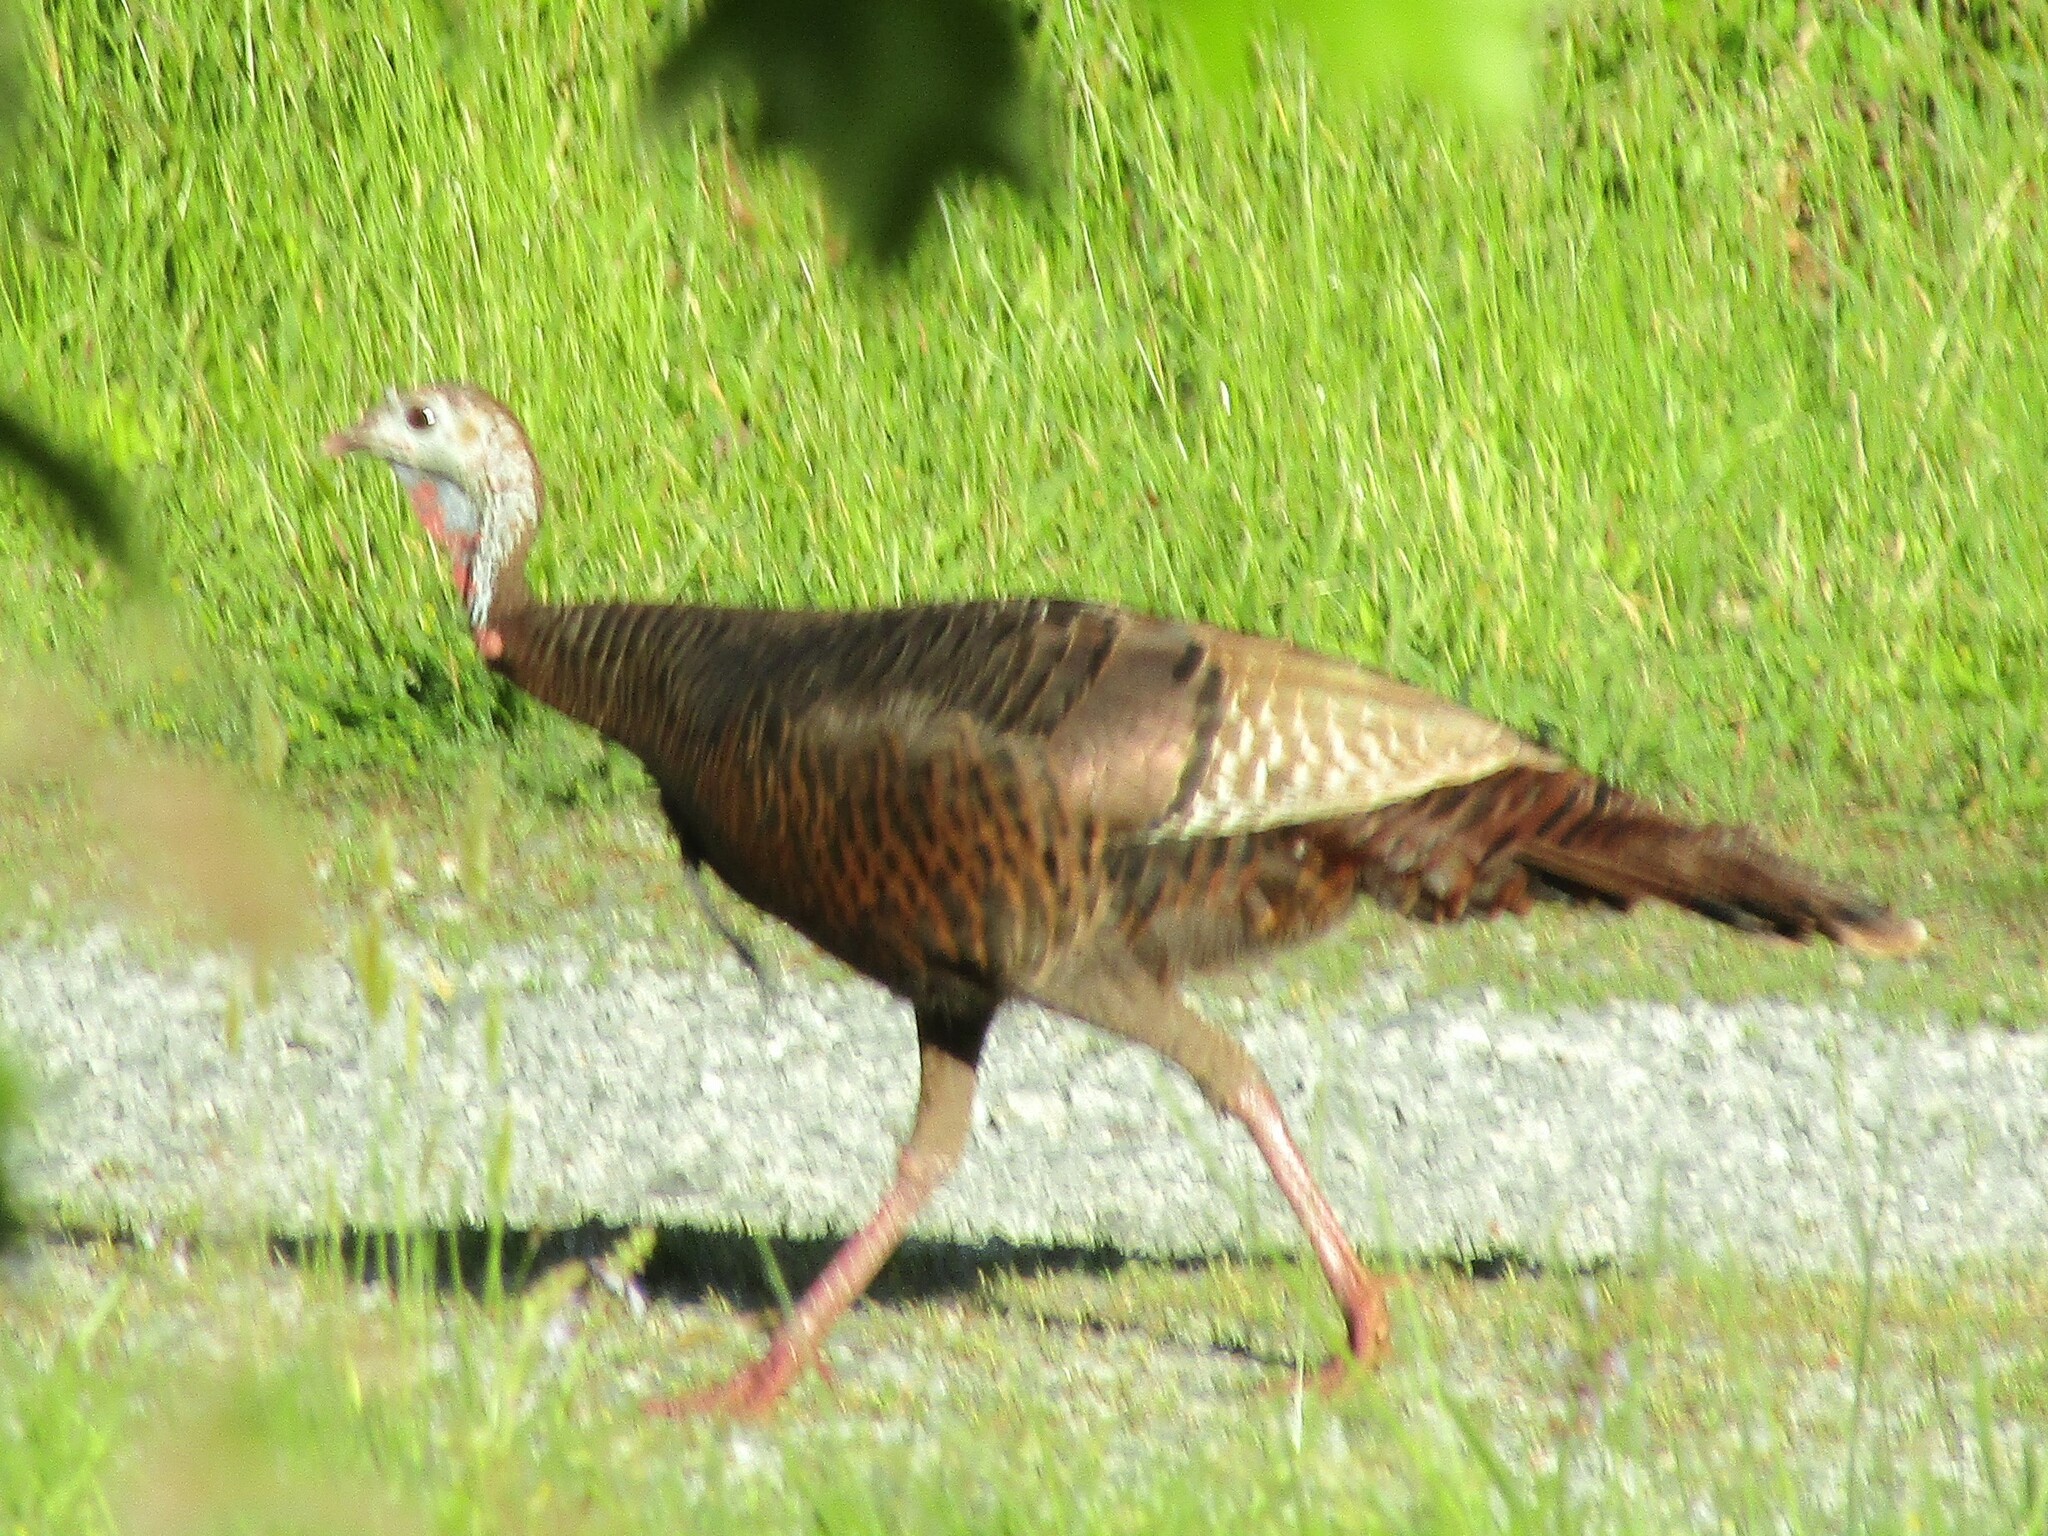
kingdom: Animalia
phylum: Chordata
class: Aves
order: Galliformes
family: Phasianidae
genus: Meleagris
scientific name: Meleagris gallopavo
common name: Wild turkey
